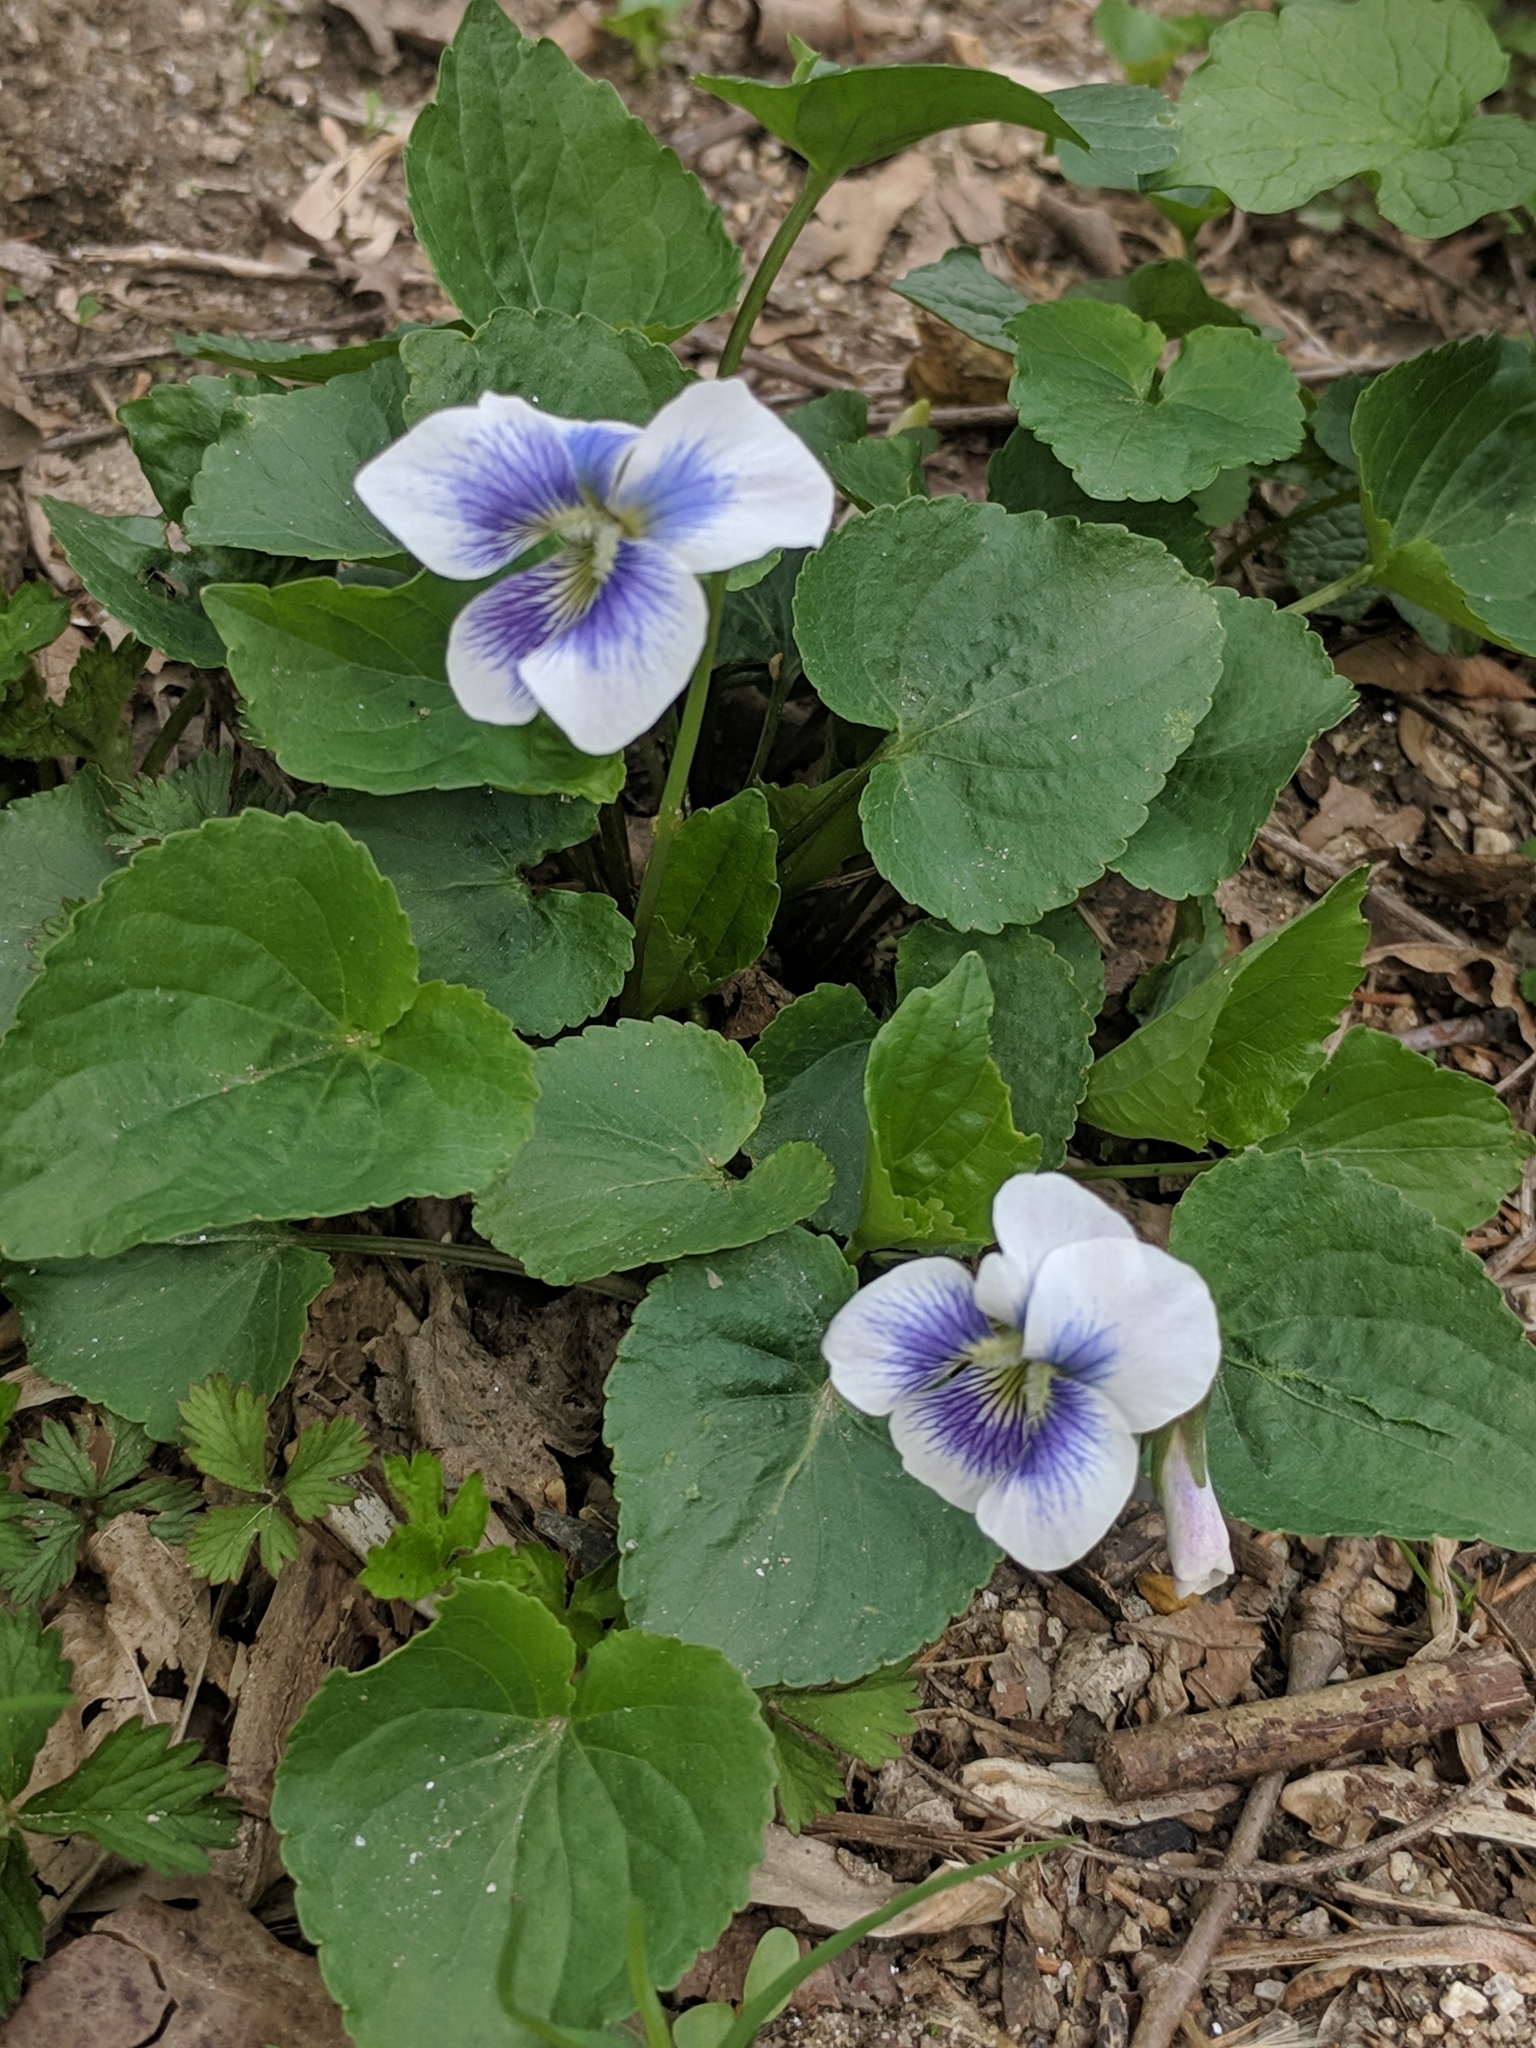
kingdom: Plantae
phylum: Tracheophyta
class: Magnoliopsida
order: Malpighiales
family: Violaceae
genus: Viola
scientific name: Viola sororia
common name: Dooryard violet
